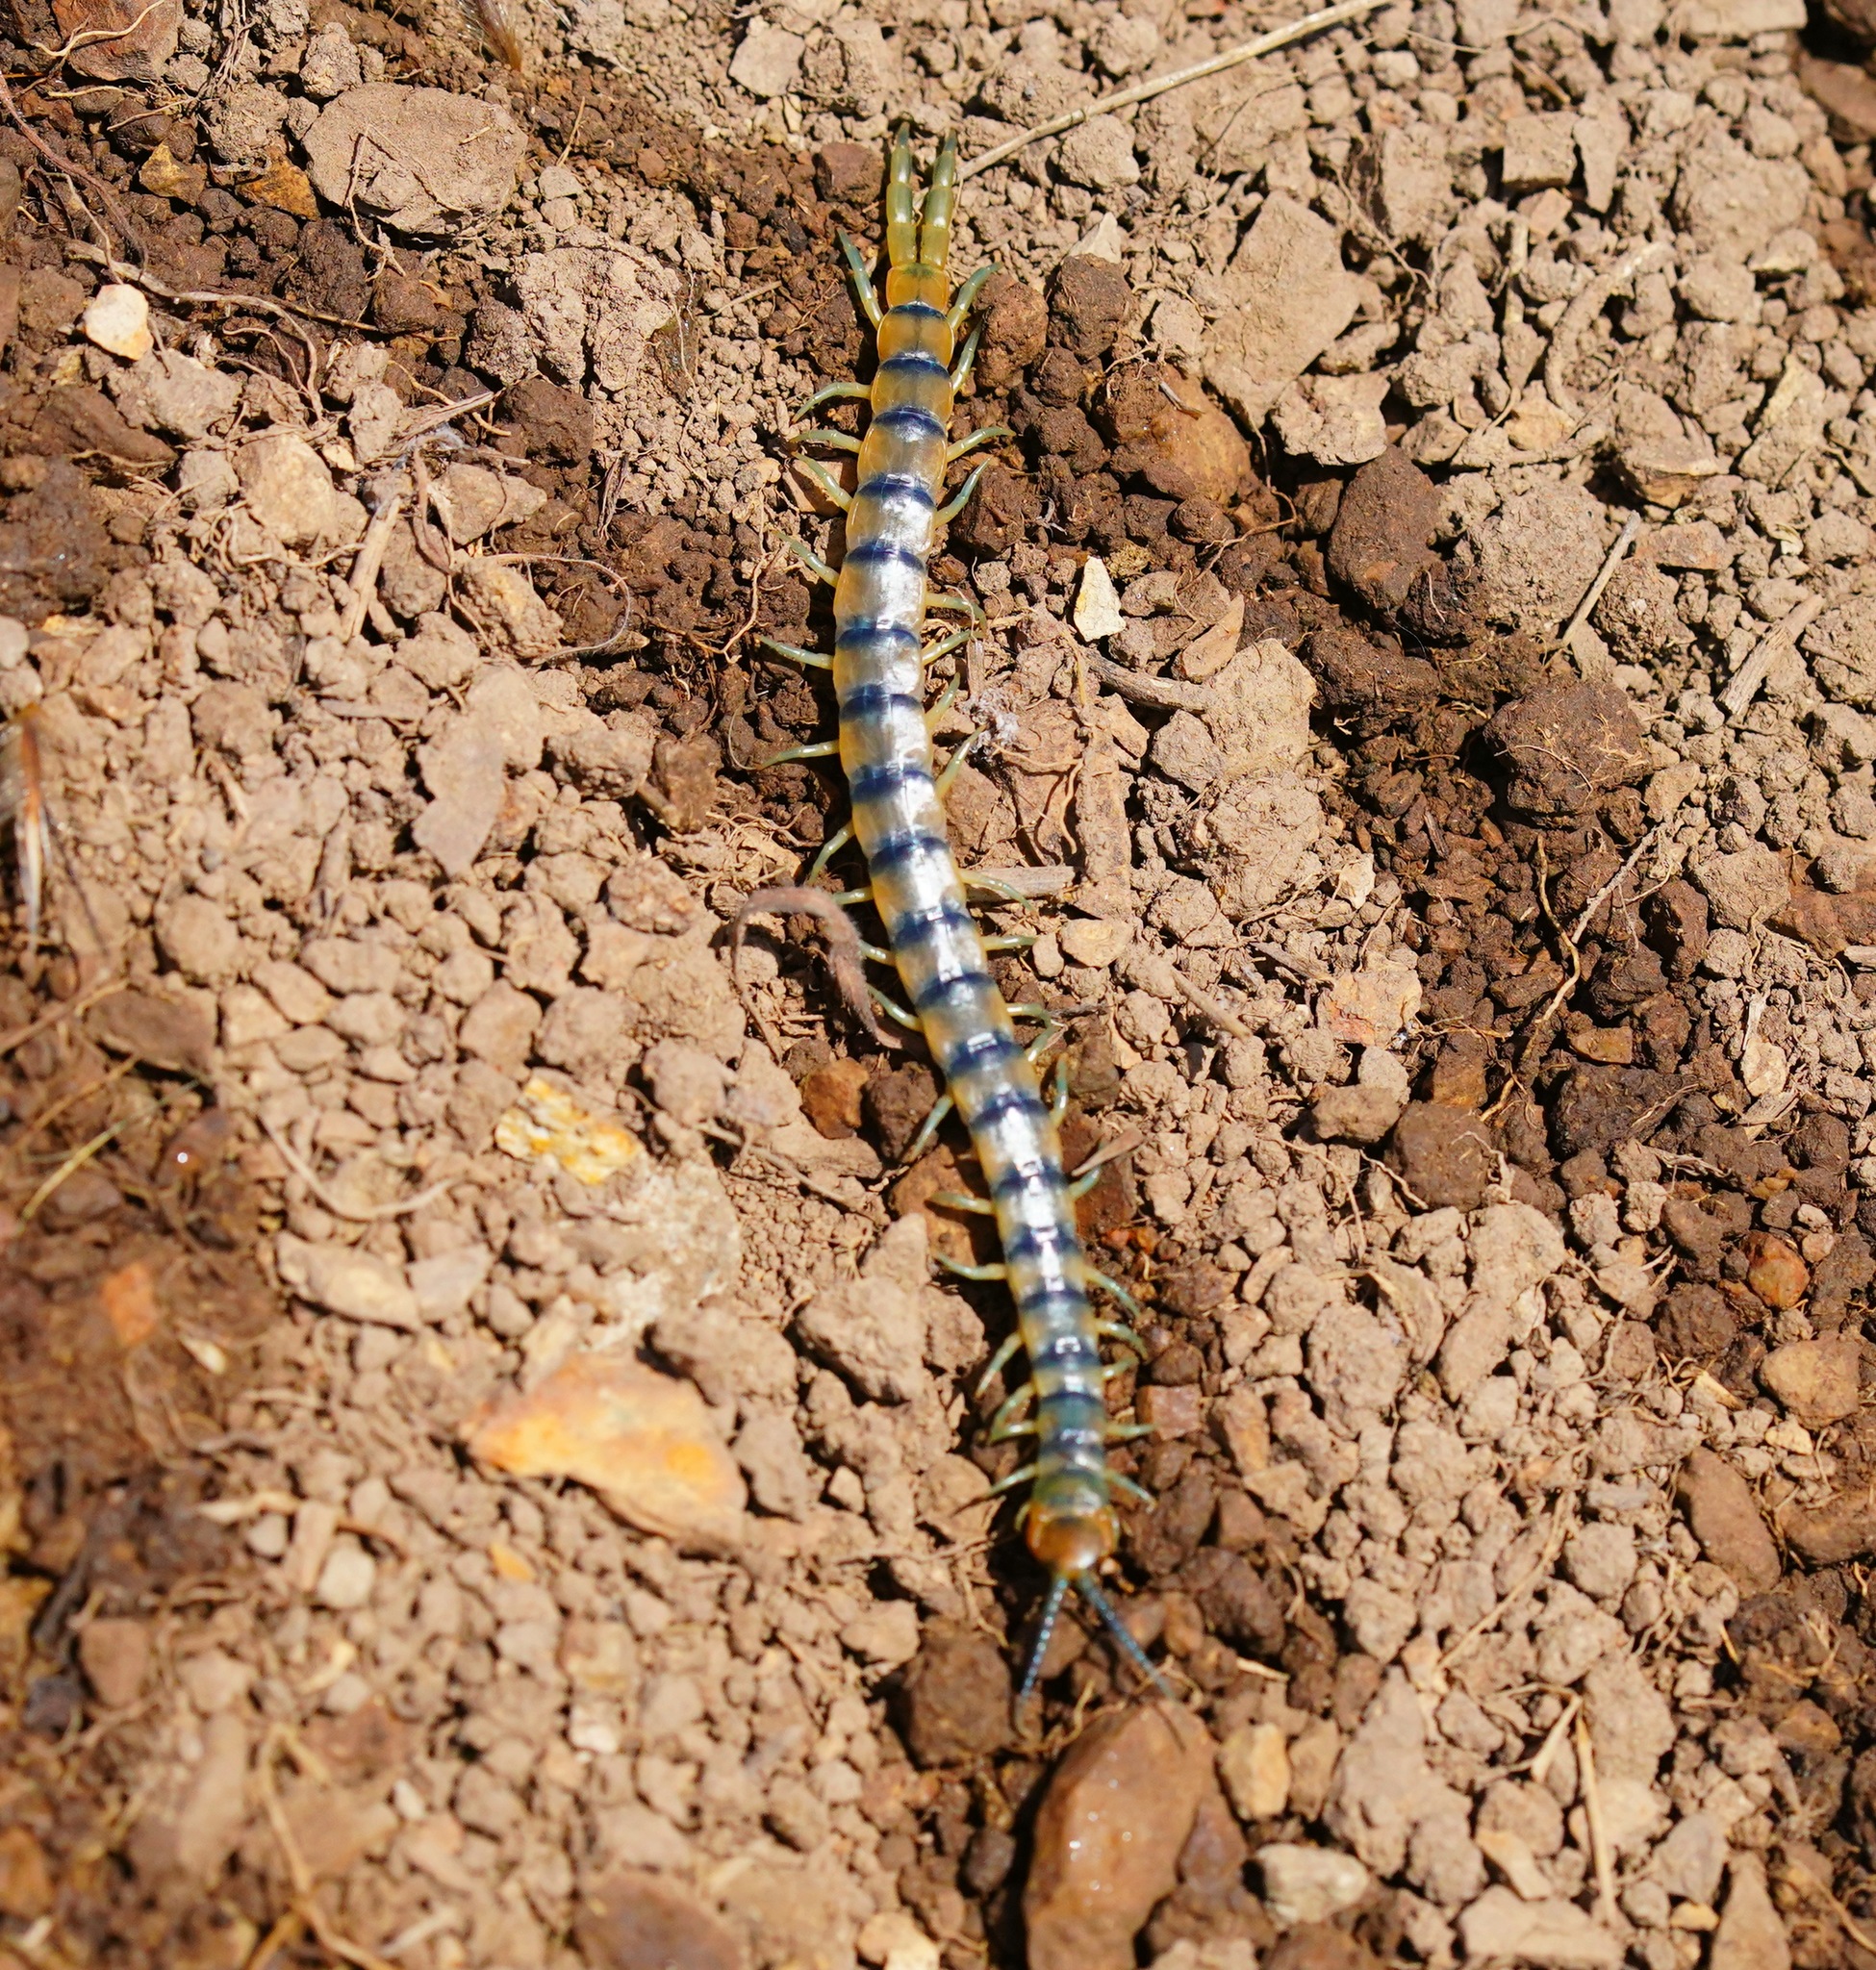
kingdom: Animalia
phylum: Arthropoda
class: Chilopoda
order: Scolopendromorpha
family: Scolopendridae
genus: Scolopendra
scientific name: Scolopendra polymorpha
